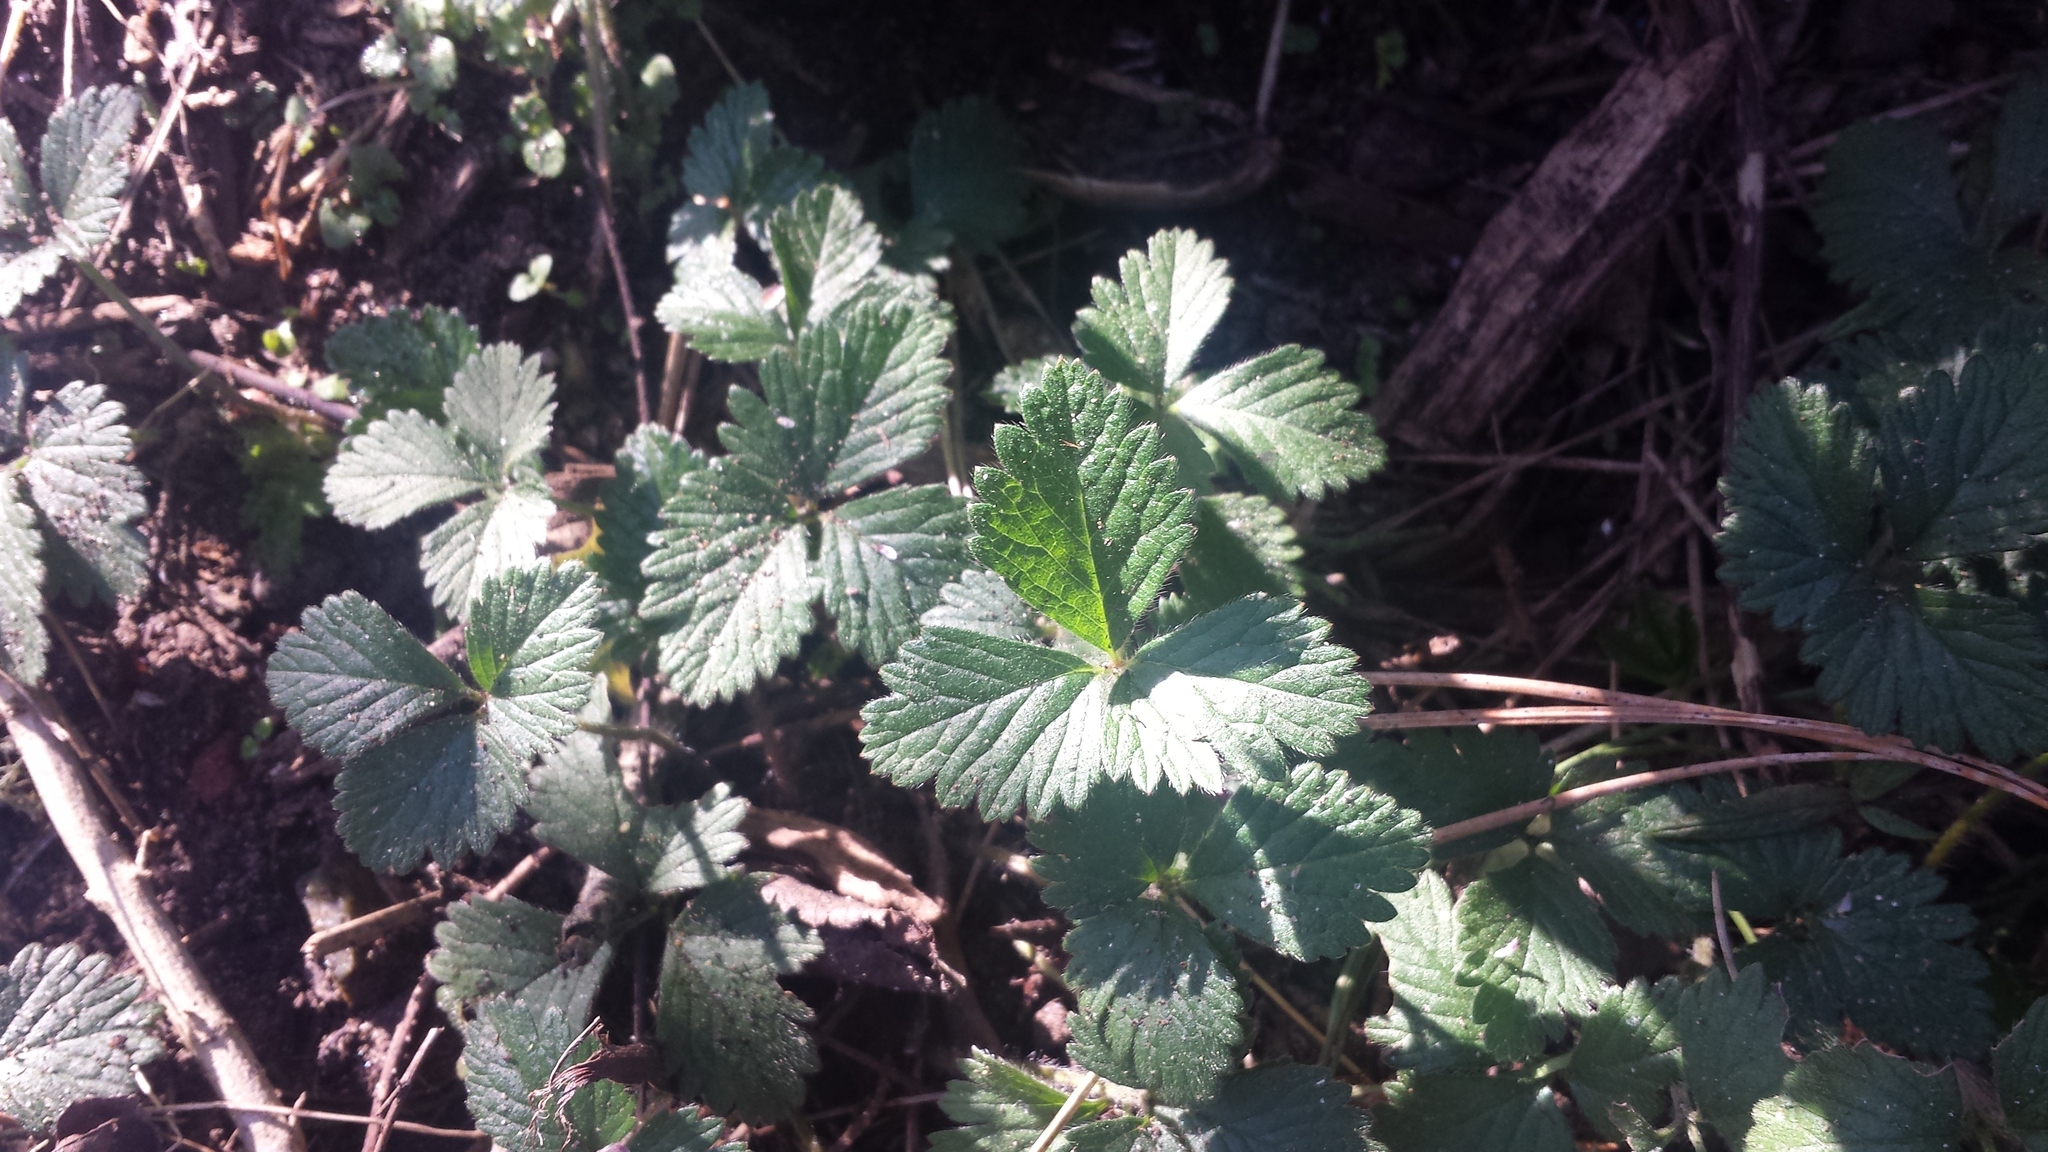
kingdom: Plantae
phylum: Tracheophyta
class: Magnoliopsida
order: Rosales
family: Rosaceae
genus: Fragaria
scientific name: Fragaria vesca
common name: Wild strawberry
